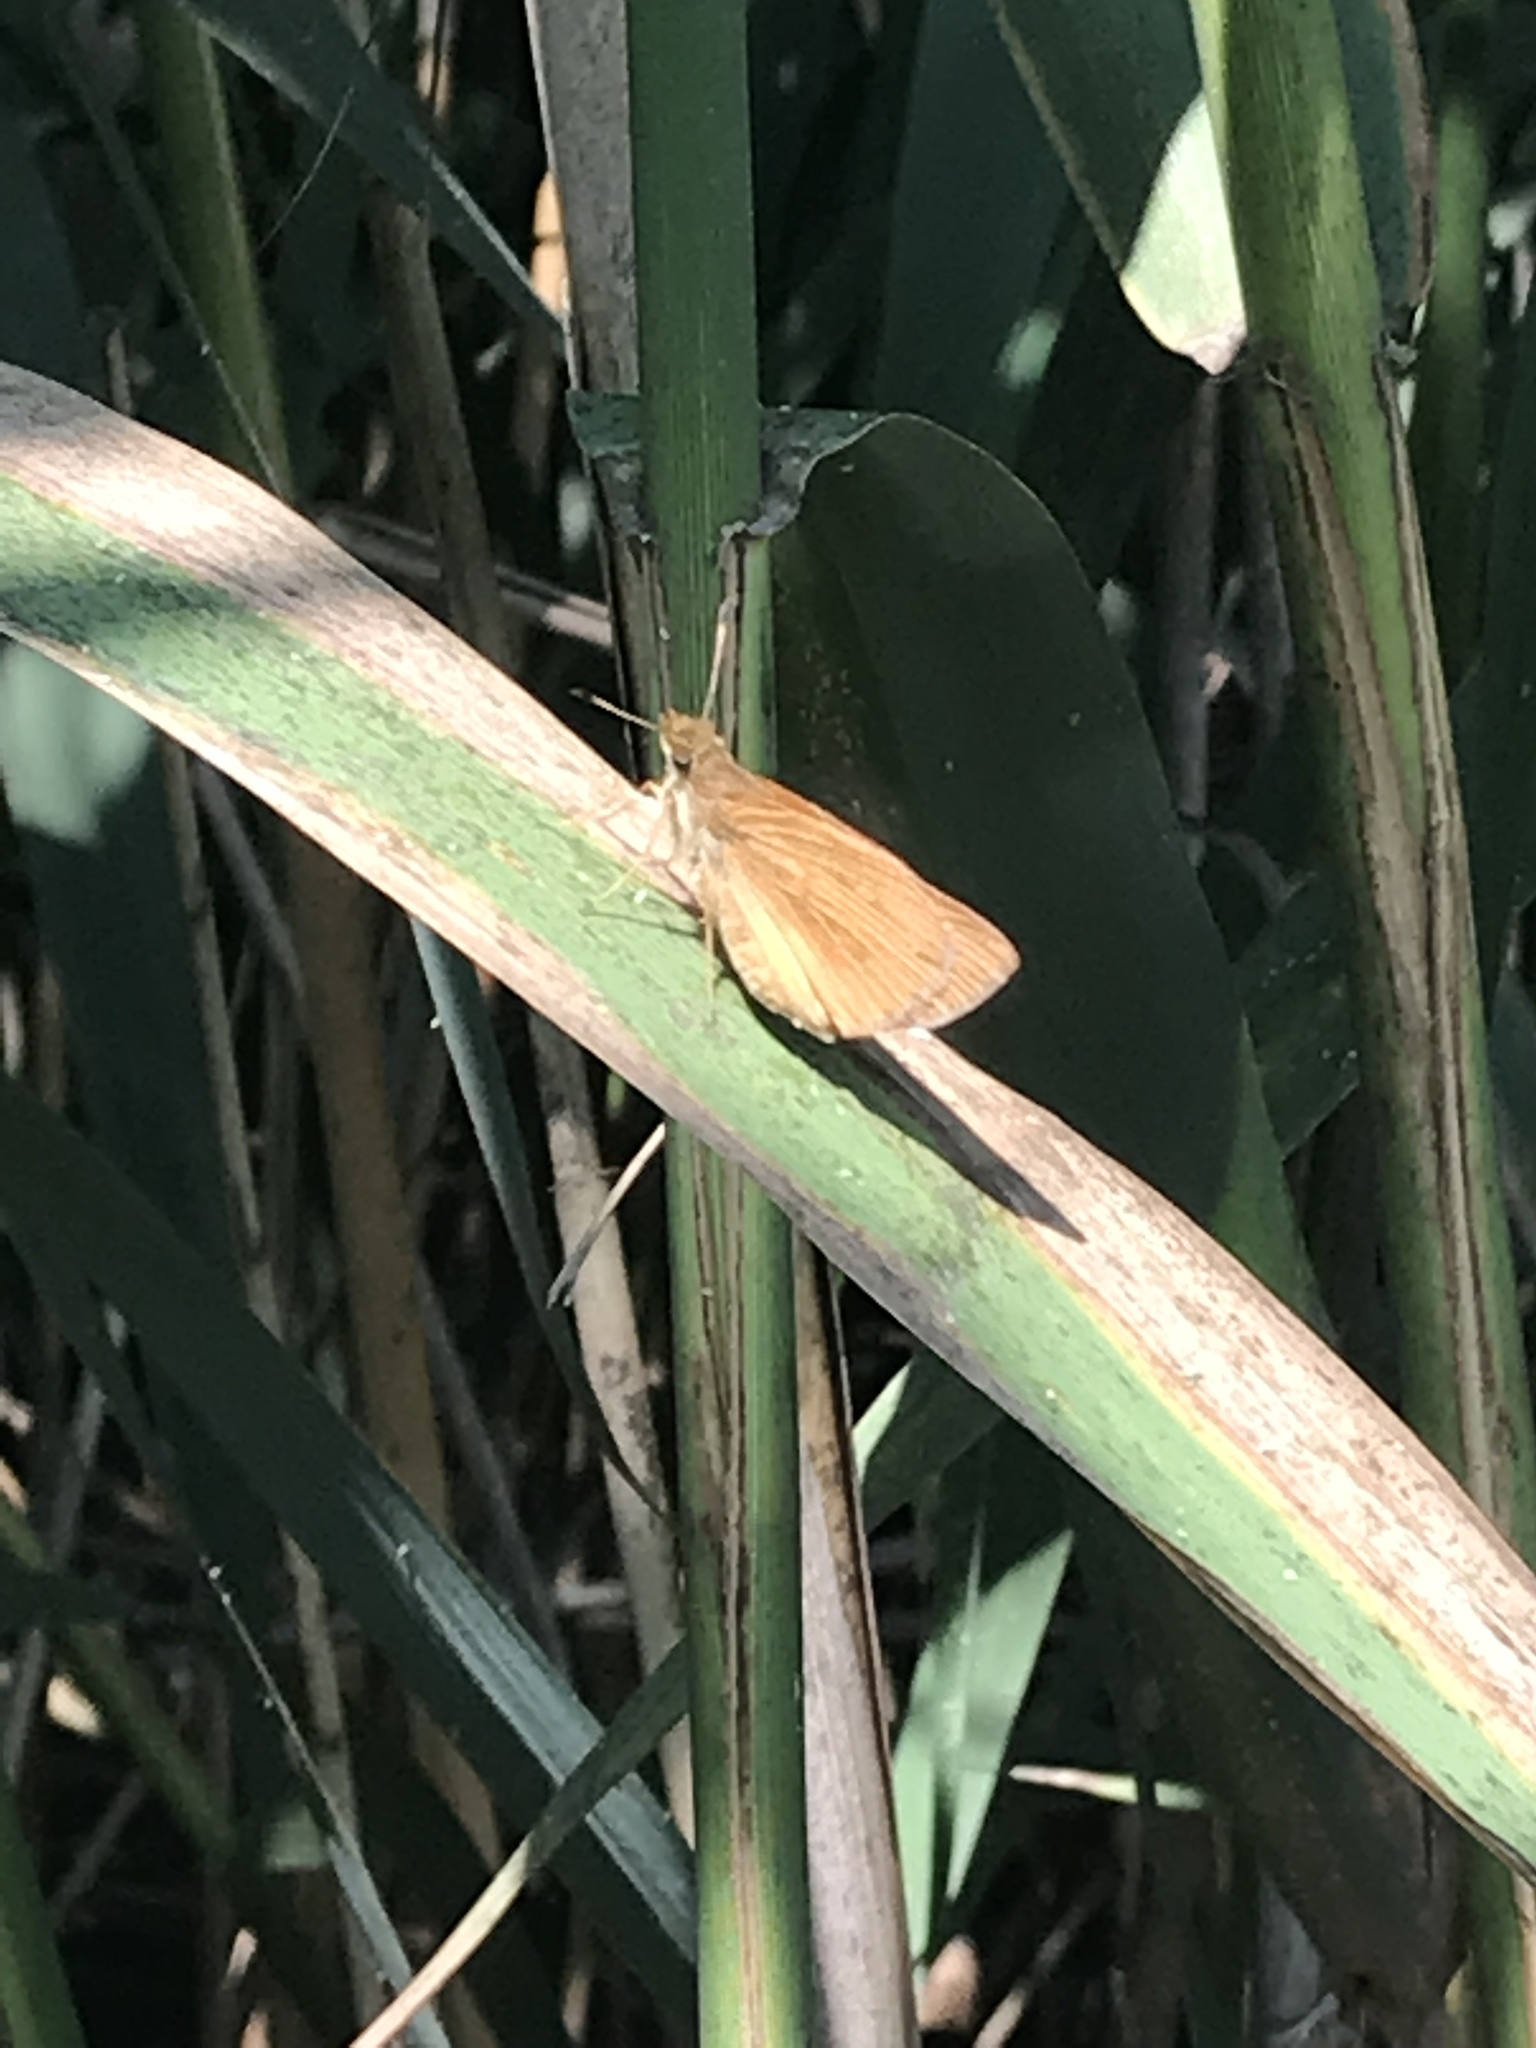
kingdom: Animalia
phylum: Arthropoda
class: Insecta
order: Lepidoptera
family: Hesperiidae
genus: Poanes
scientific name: Poanes viator
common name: Broad-winged skipper
